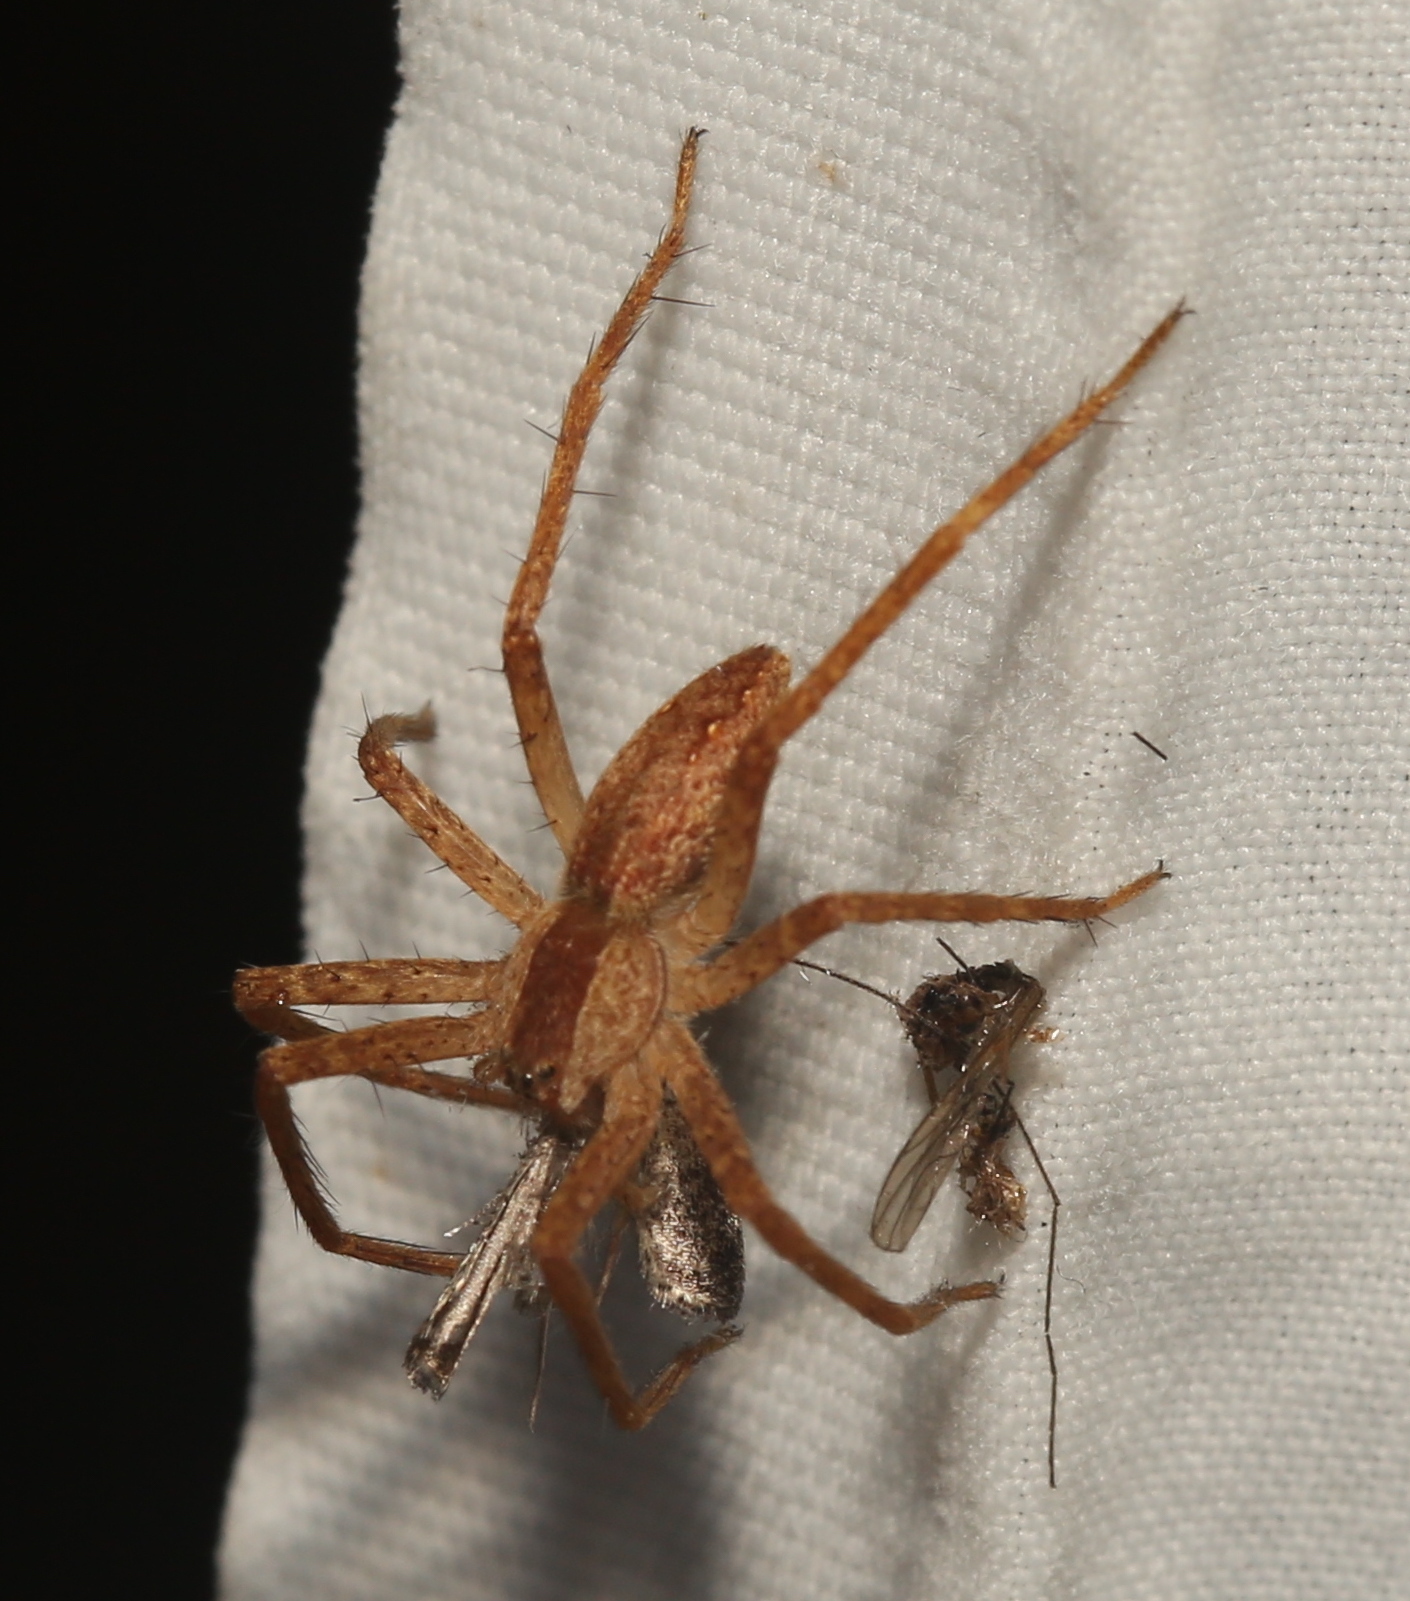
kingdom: Animalia
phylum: Arthropoda
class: Arachnida
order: Araneae
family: Pisauridae
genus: Pisaurina
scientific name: Pisaurina mira
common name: American nursery web spider
